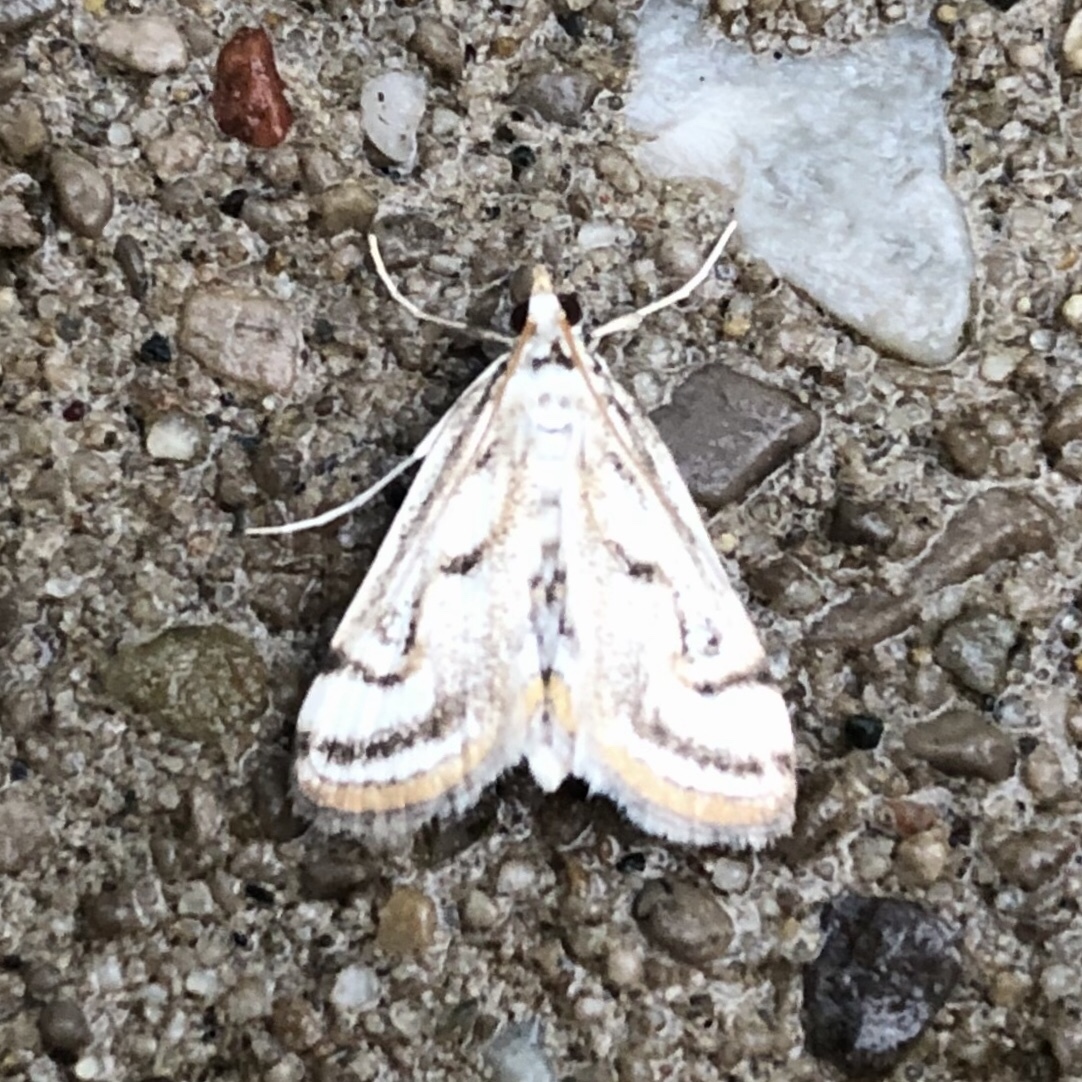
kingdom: Animalia
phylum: Arthropoda
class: Insecta
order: Lepidoptera
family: Crambidae
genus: Parapoynx
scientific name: Parapoynx badiusalis
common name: Chestnut-marked pondweed moth
